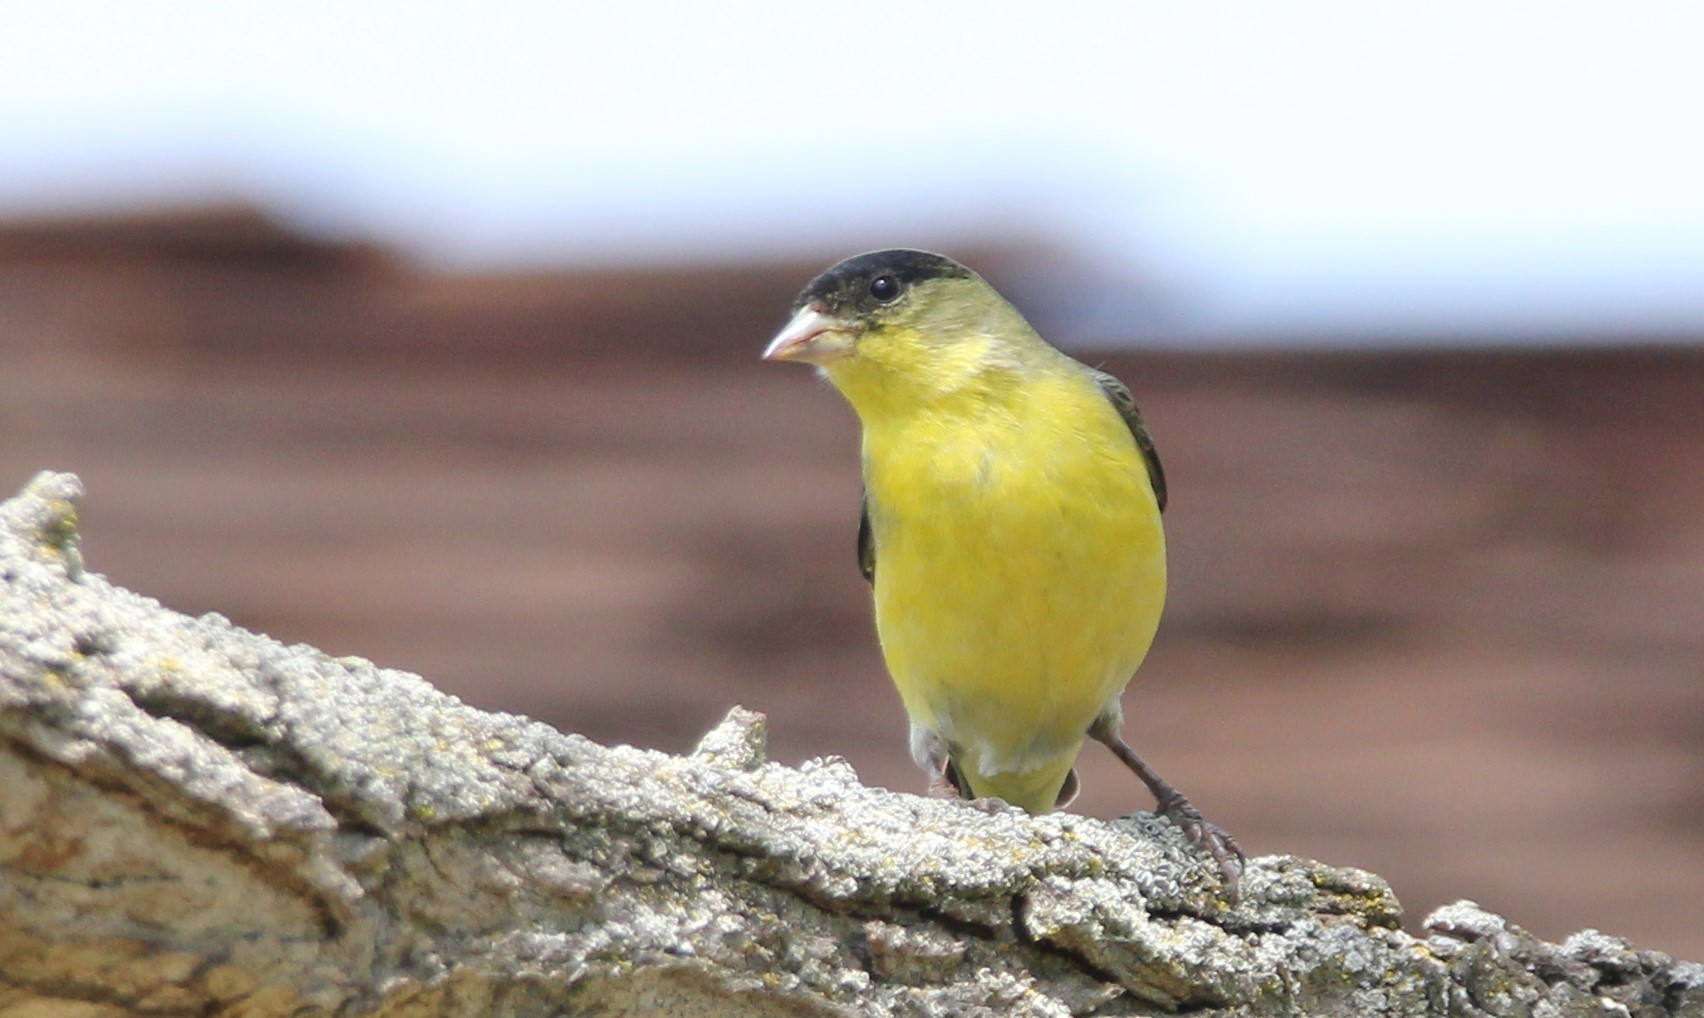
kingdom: Animalia
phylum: Chordata
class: Aves
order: Passeriformes
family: Fringillidae
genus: Spinus
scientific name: Spinus psaltria
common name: Lesser goldfinch
